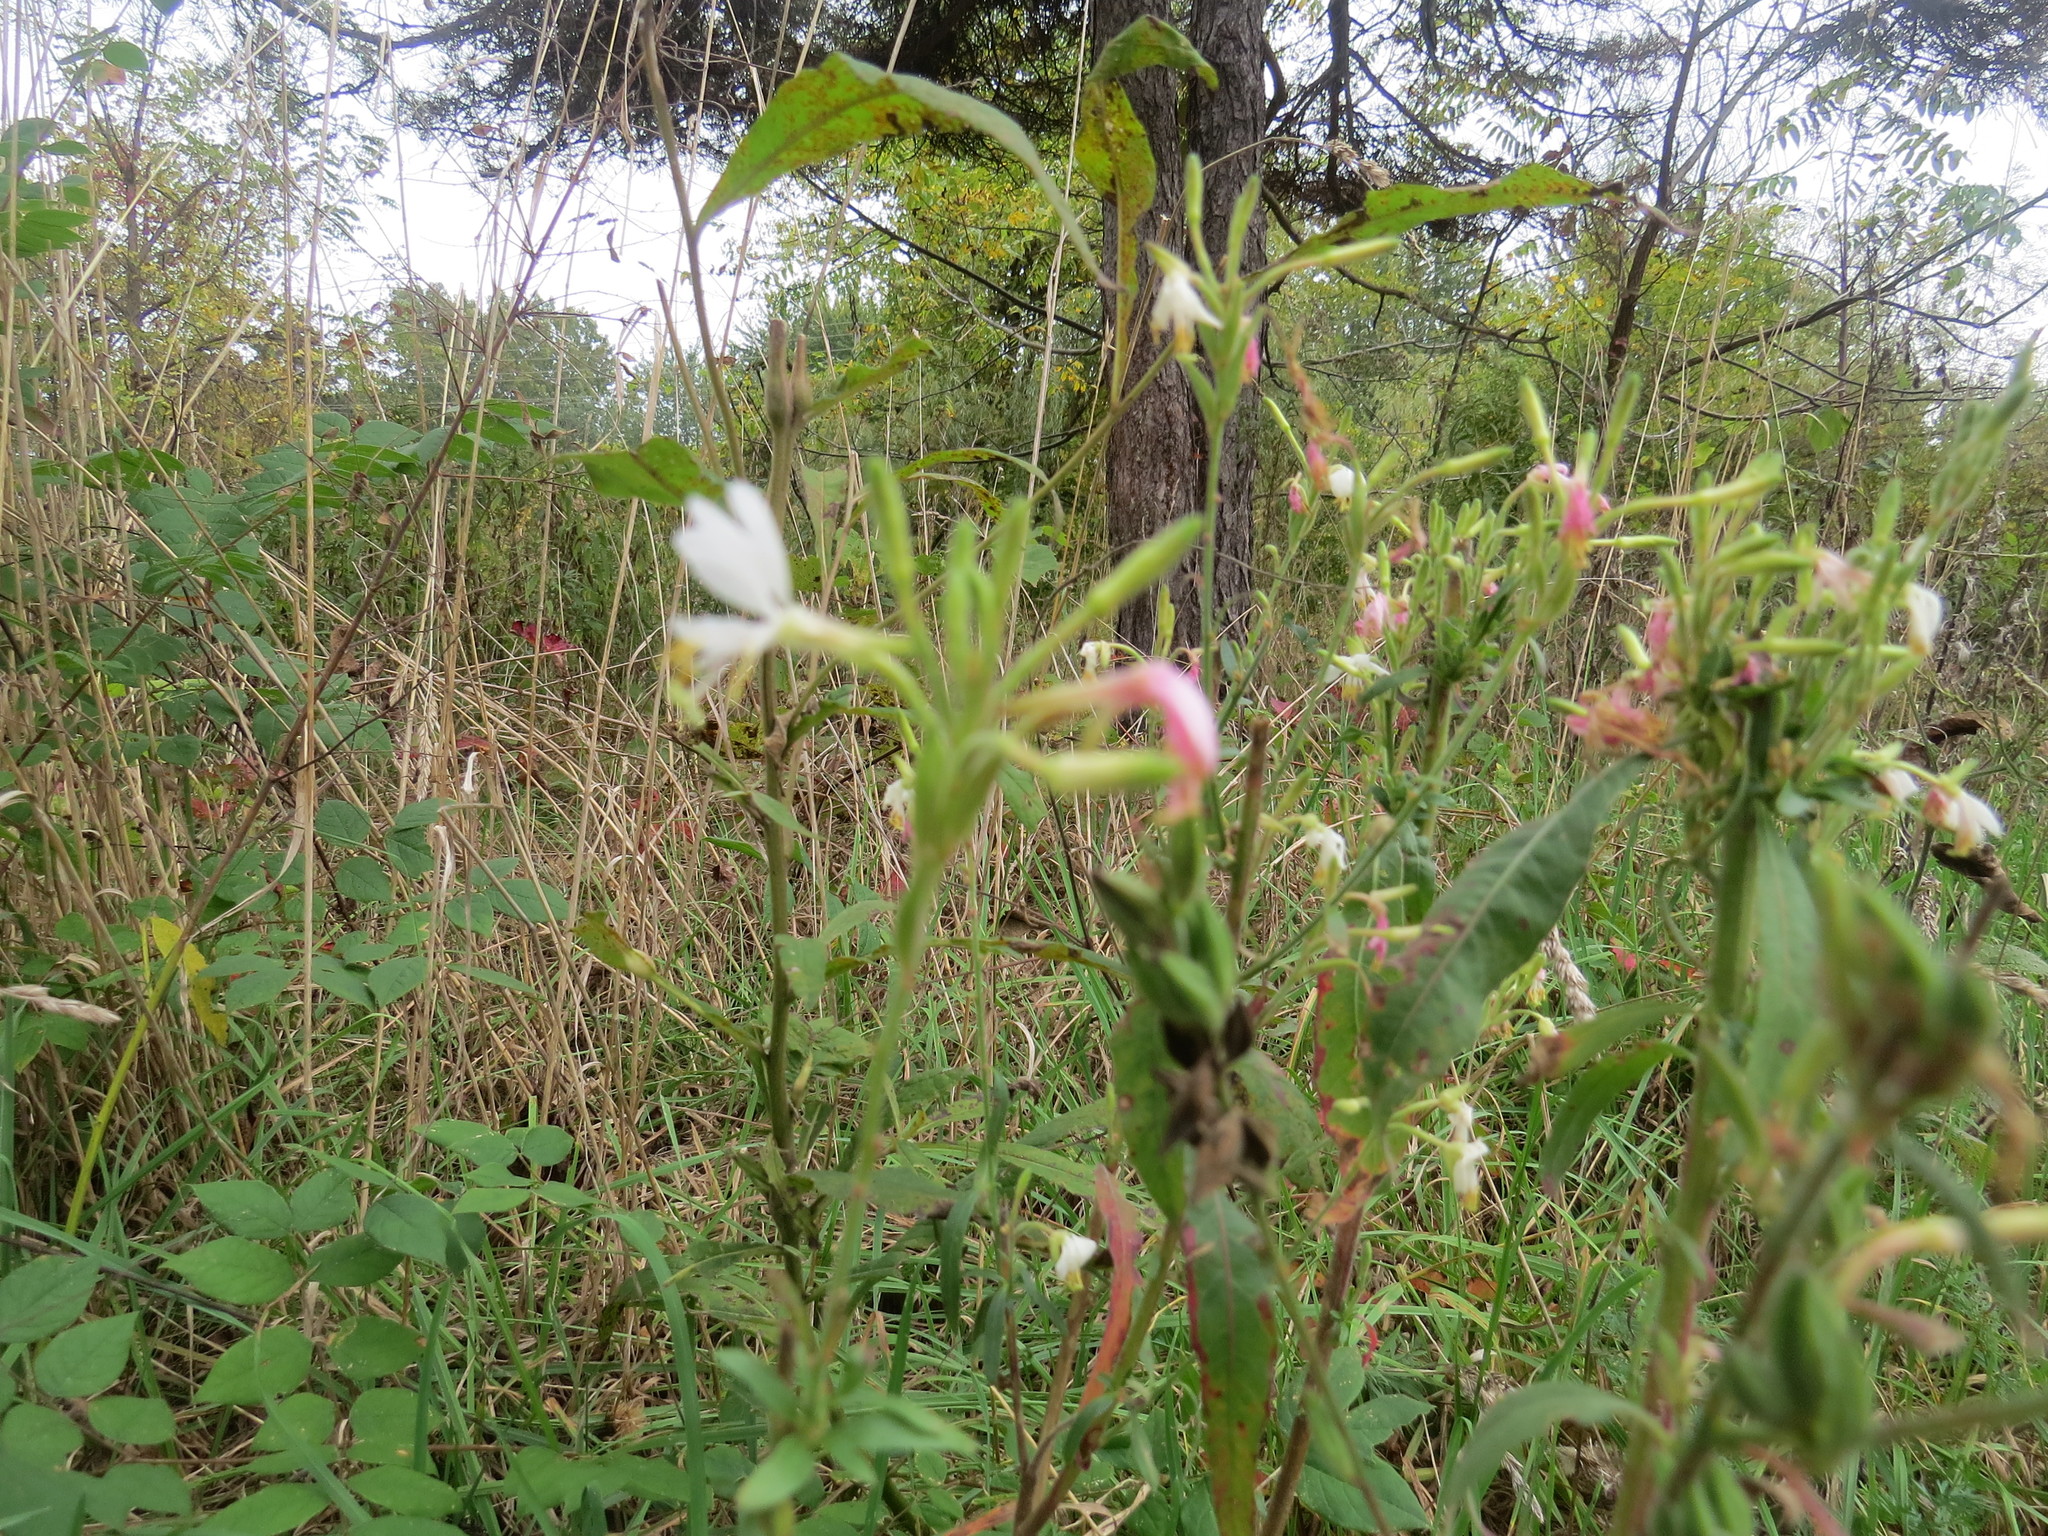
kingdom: Plantae
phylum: Tracheophyta
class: Magnoliopsida
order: Myrtales
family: Onagraceae
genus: Oenothera
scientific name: Oenothera gaura
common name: Biennial beeblossom
